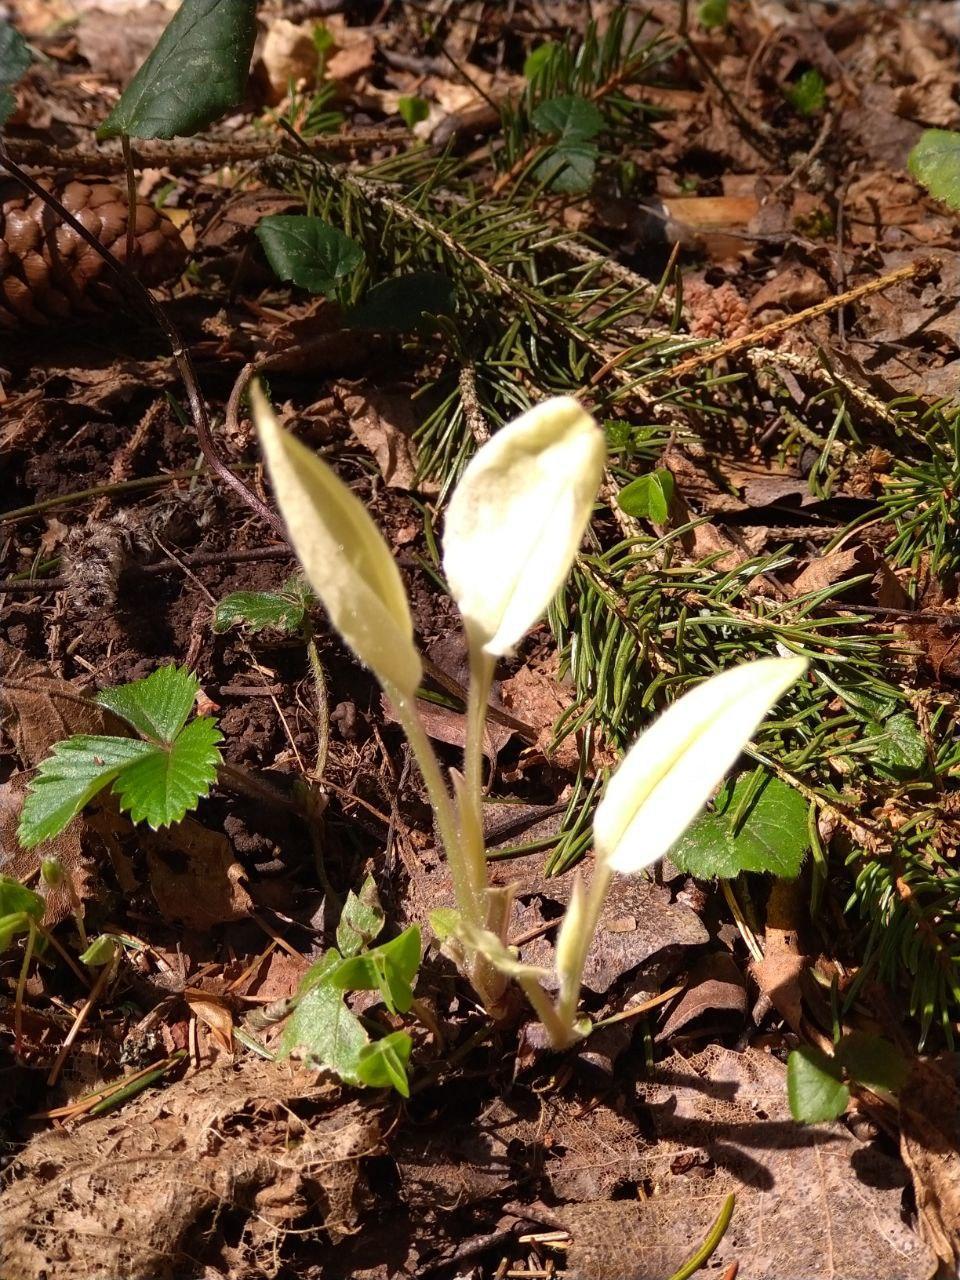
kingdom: Plantae
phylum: Tracheophyta
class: Magnoliopsida
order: Boraginales
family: Boraginaceae
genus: Pulmonaria
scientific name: Pulmonaria obscura
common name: Suffolk lungwort
